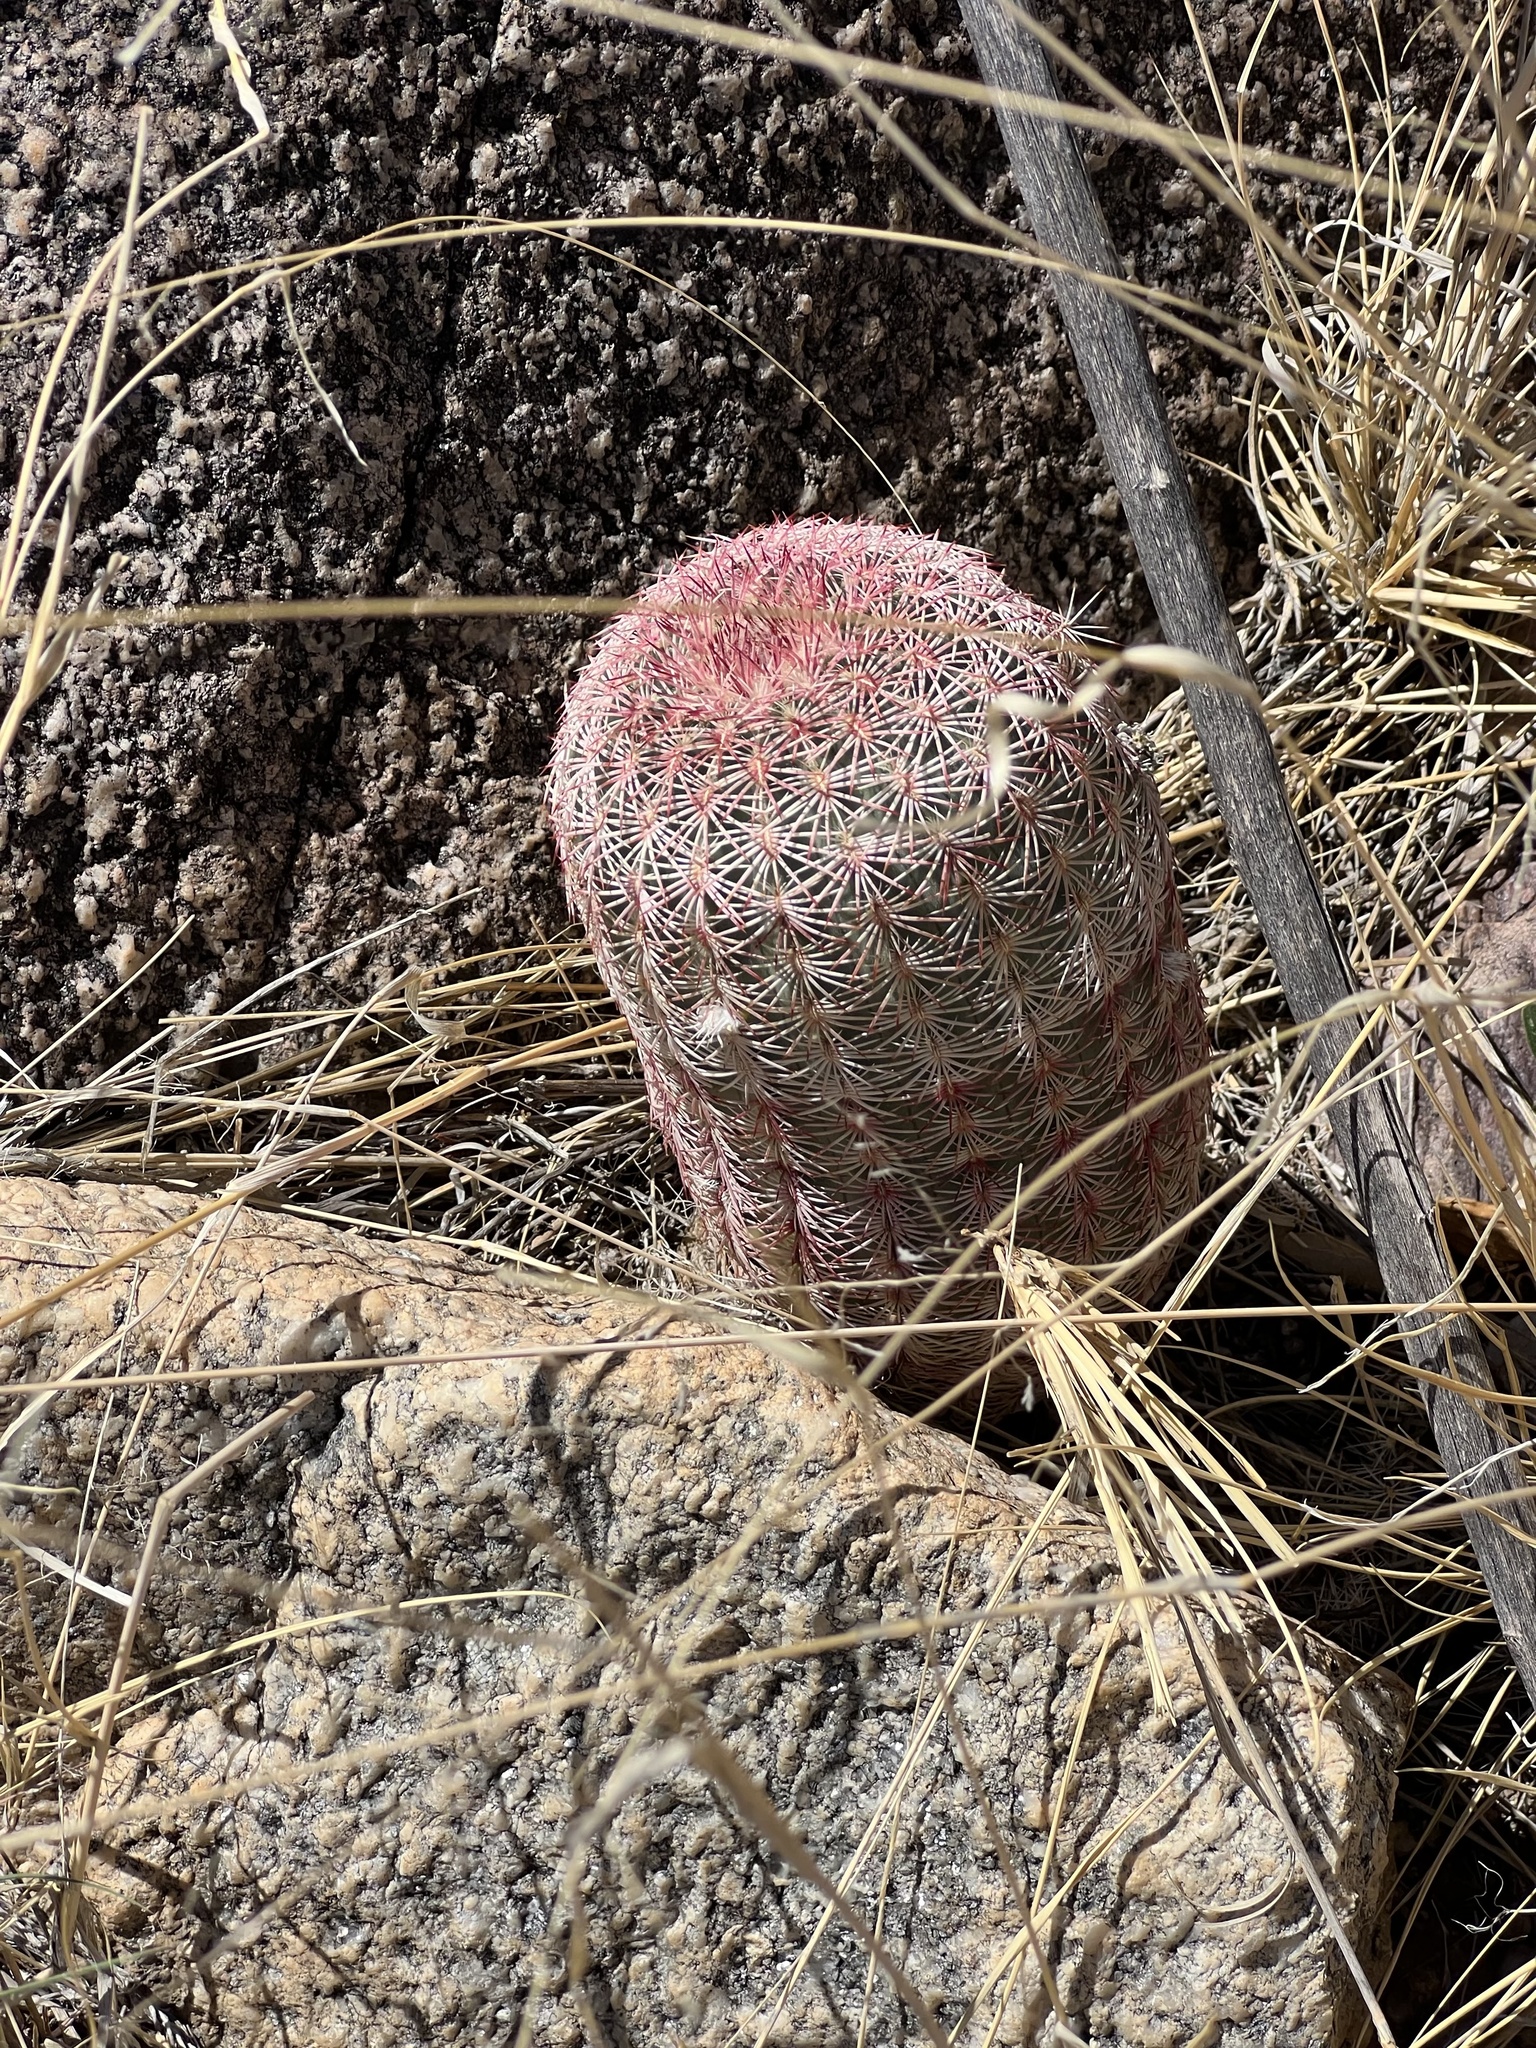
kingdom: Plantae
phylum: Tracheophyta
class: Magnoliopsida
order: Caryophyllales
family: Cactaceae
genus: Echinocereus
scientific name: Echinocereus rigidissimus
